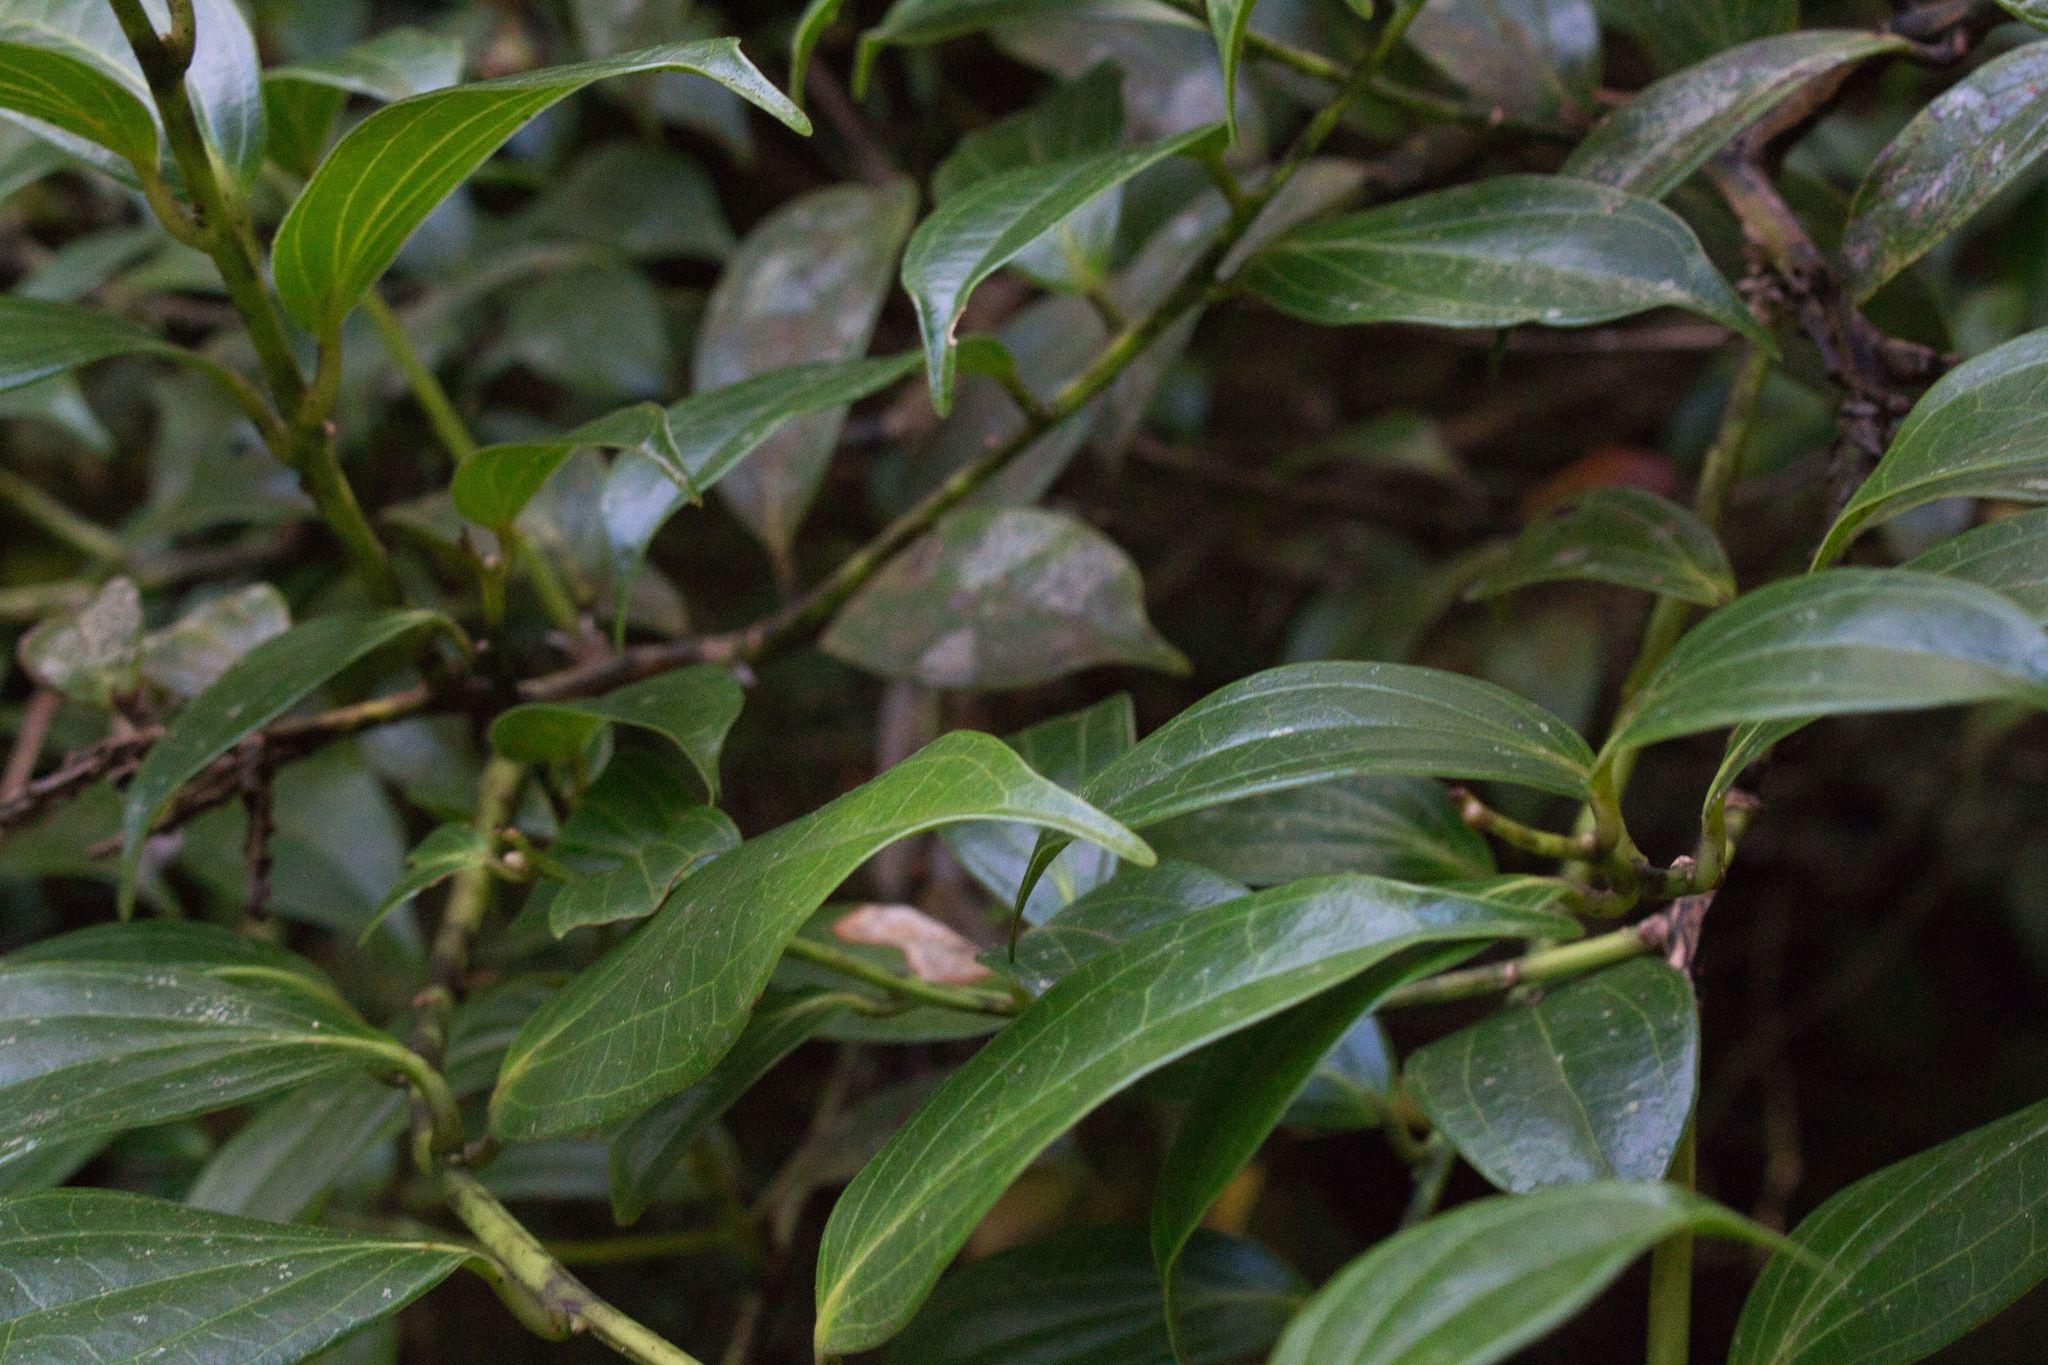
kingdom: Plantae
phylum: Tracheophyta
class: Magnoliopsida
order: Ericales
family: Ericaceae
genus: Cavendishia
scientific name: Cavendishia bracteata
